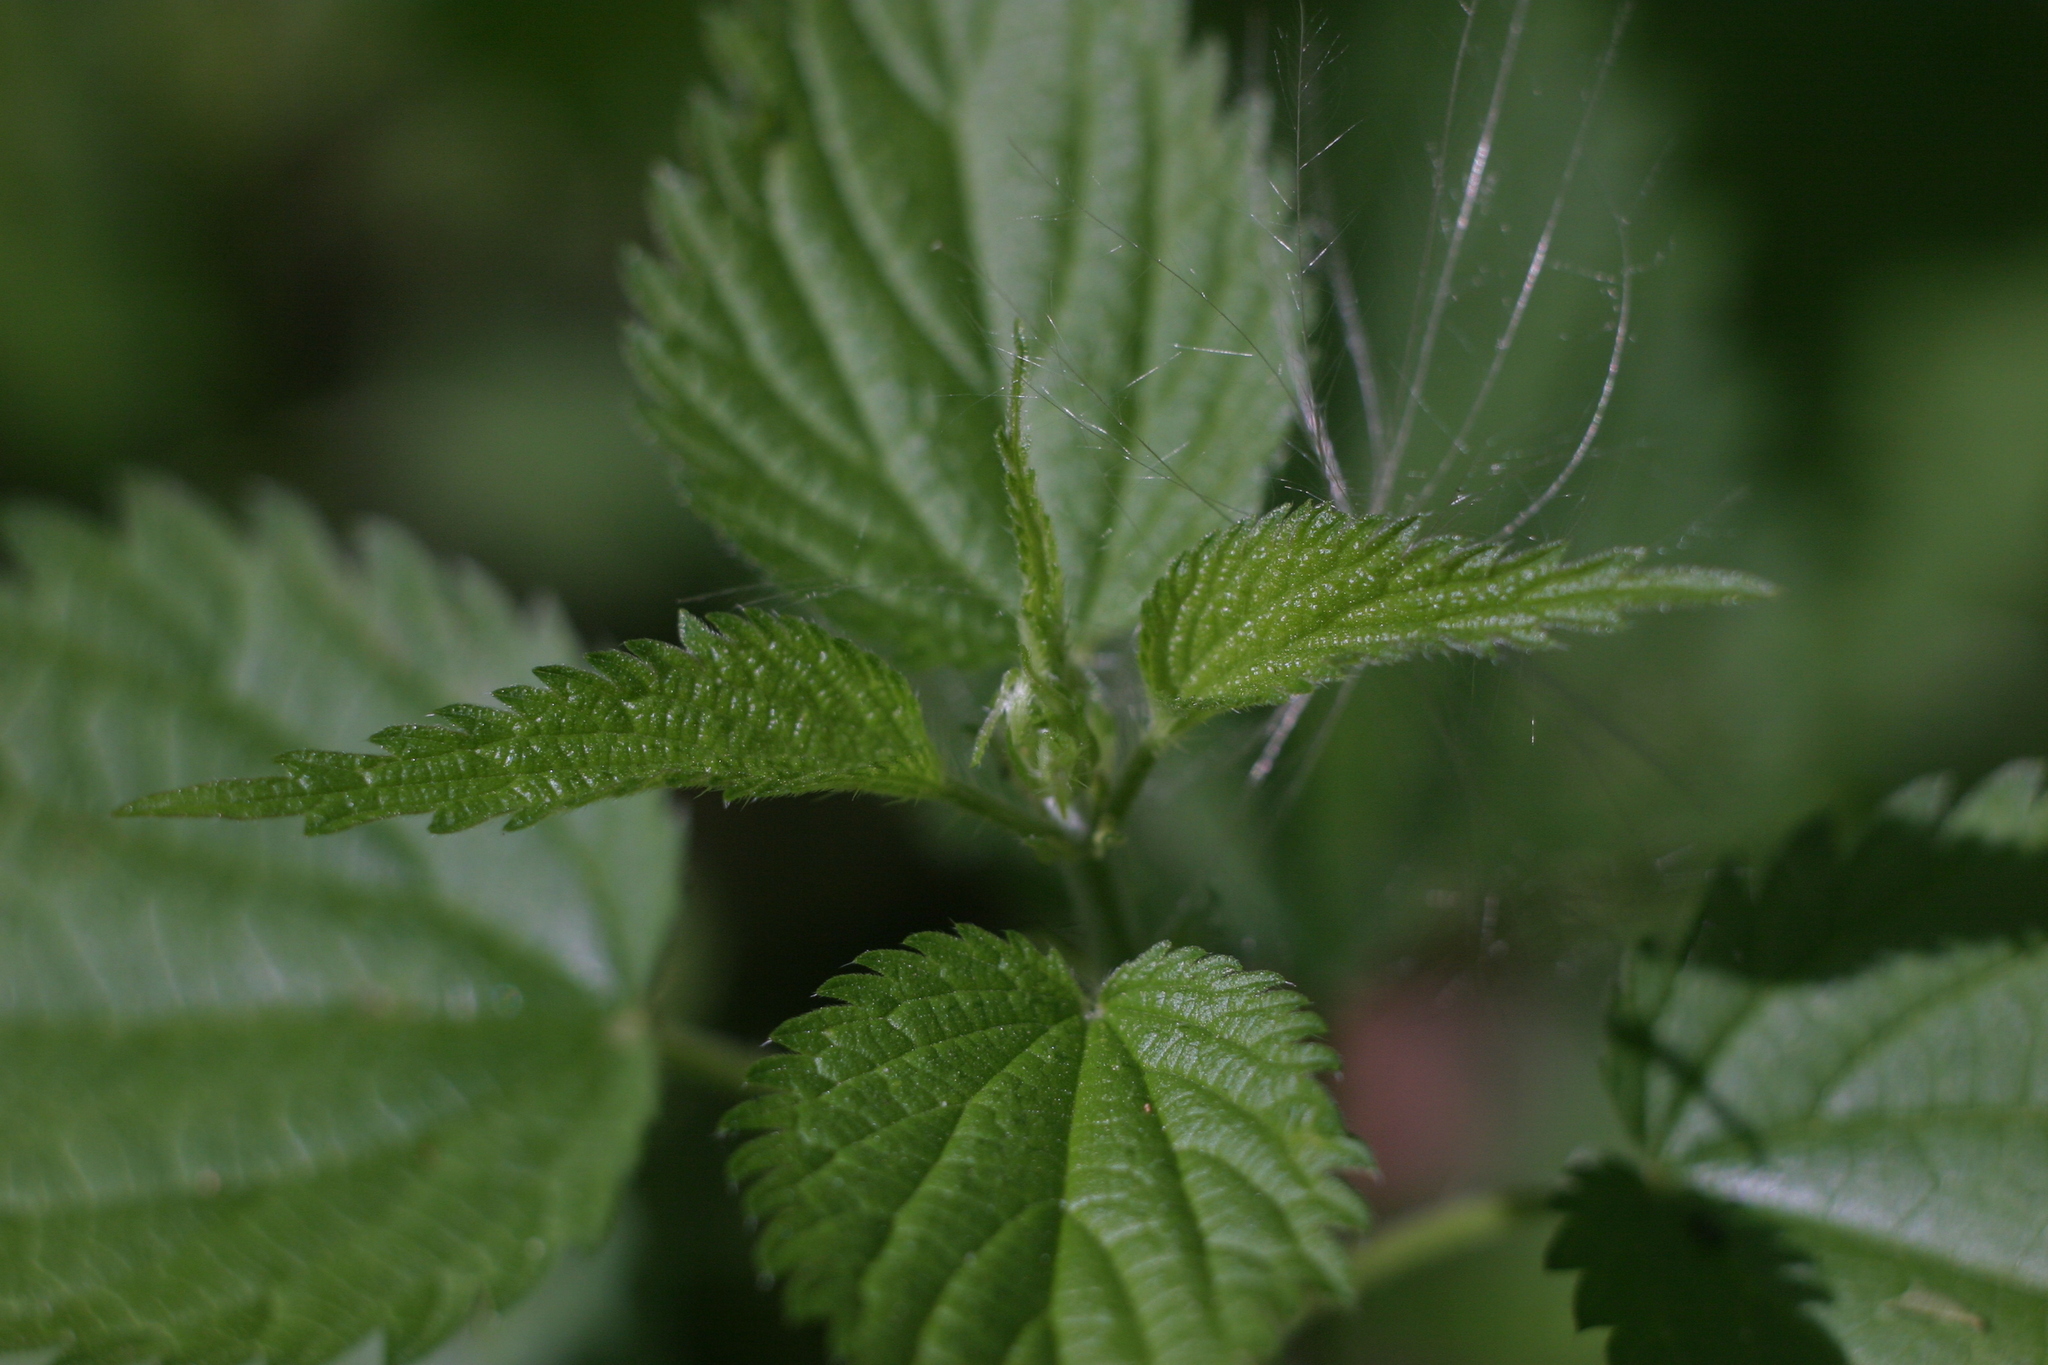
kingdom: Plantae
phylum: Tracheophyta
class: Magnoliopsida
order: Rosales
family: Urticaceae
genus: Urtica
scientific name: Urtica dioica
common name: Common nettle
